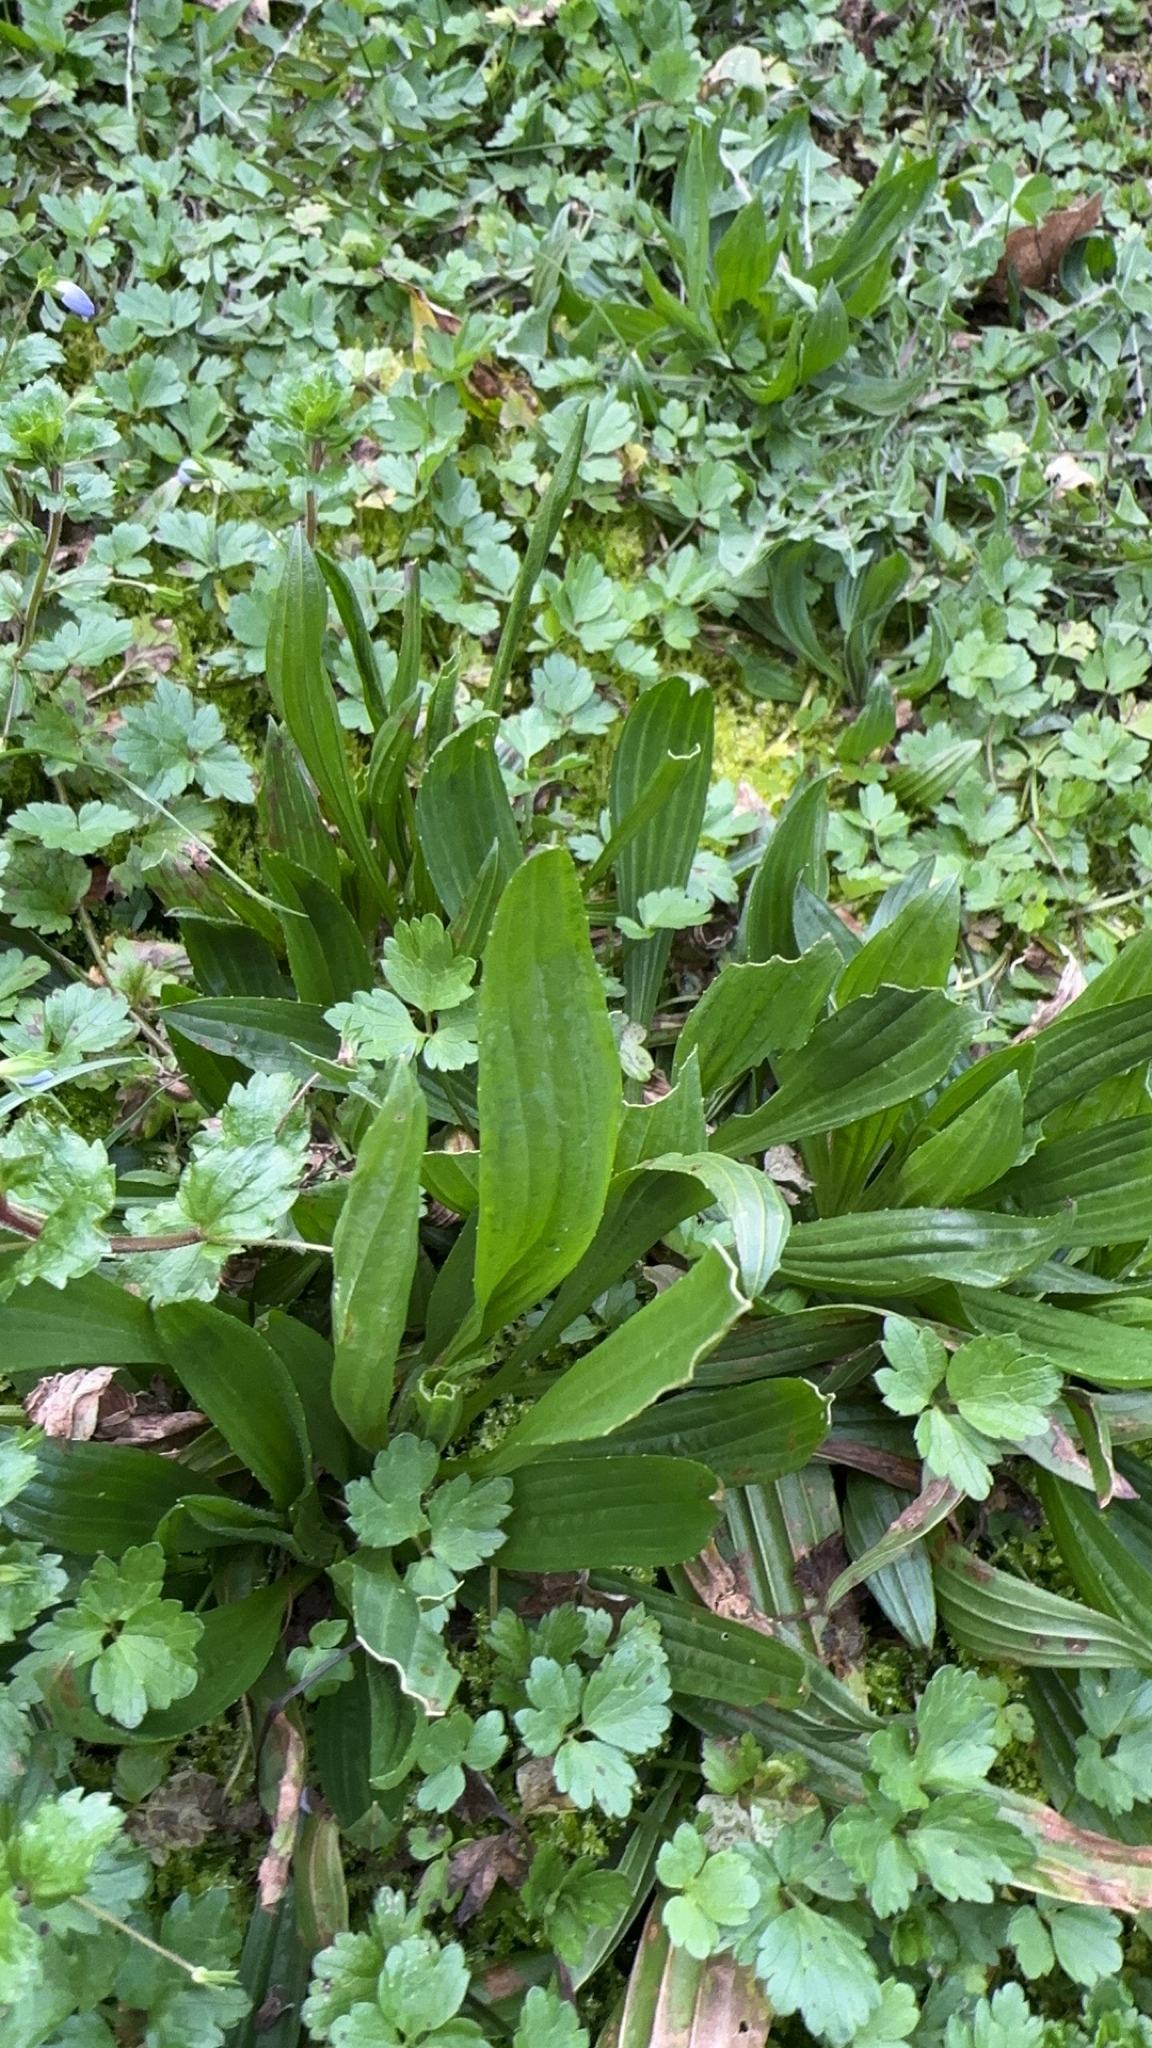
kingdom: Plantae
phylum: Tracheophyta
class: Magnoliopsida
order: Lamiales
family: Plantaginaceae
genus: Plantago
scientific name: Plantago lanceolata
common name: Ribwort plantain
